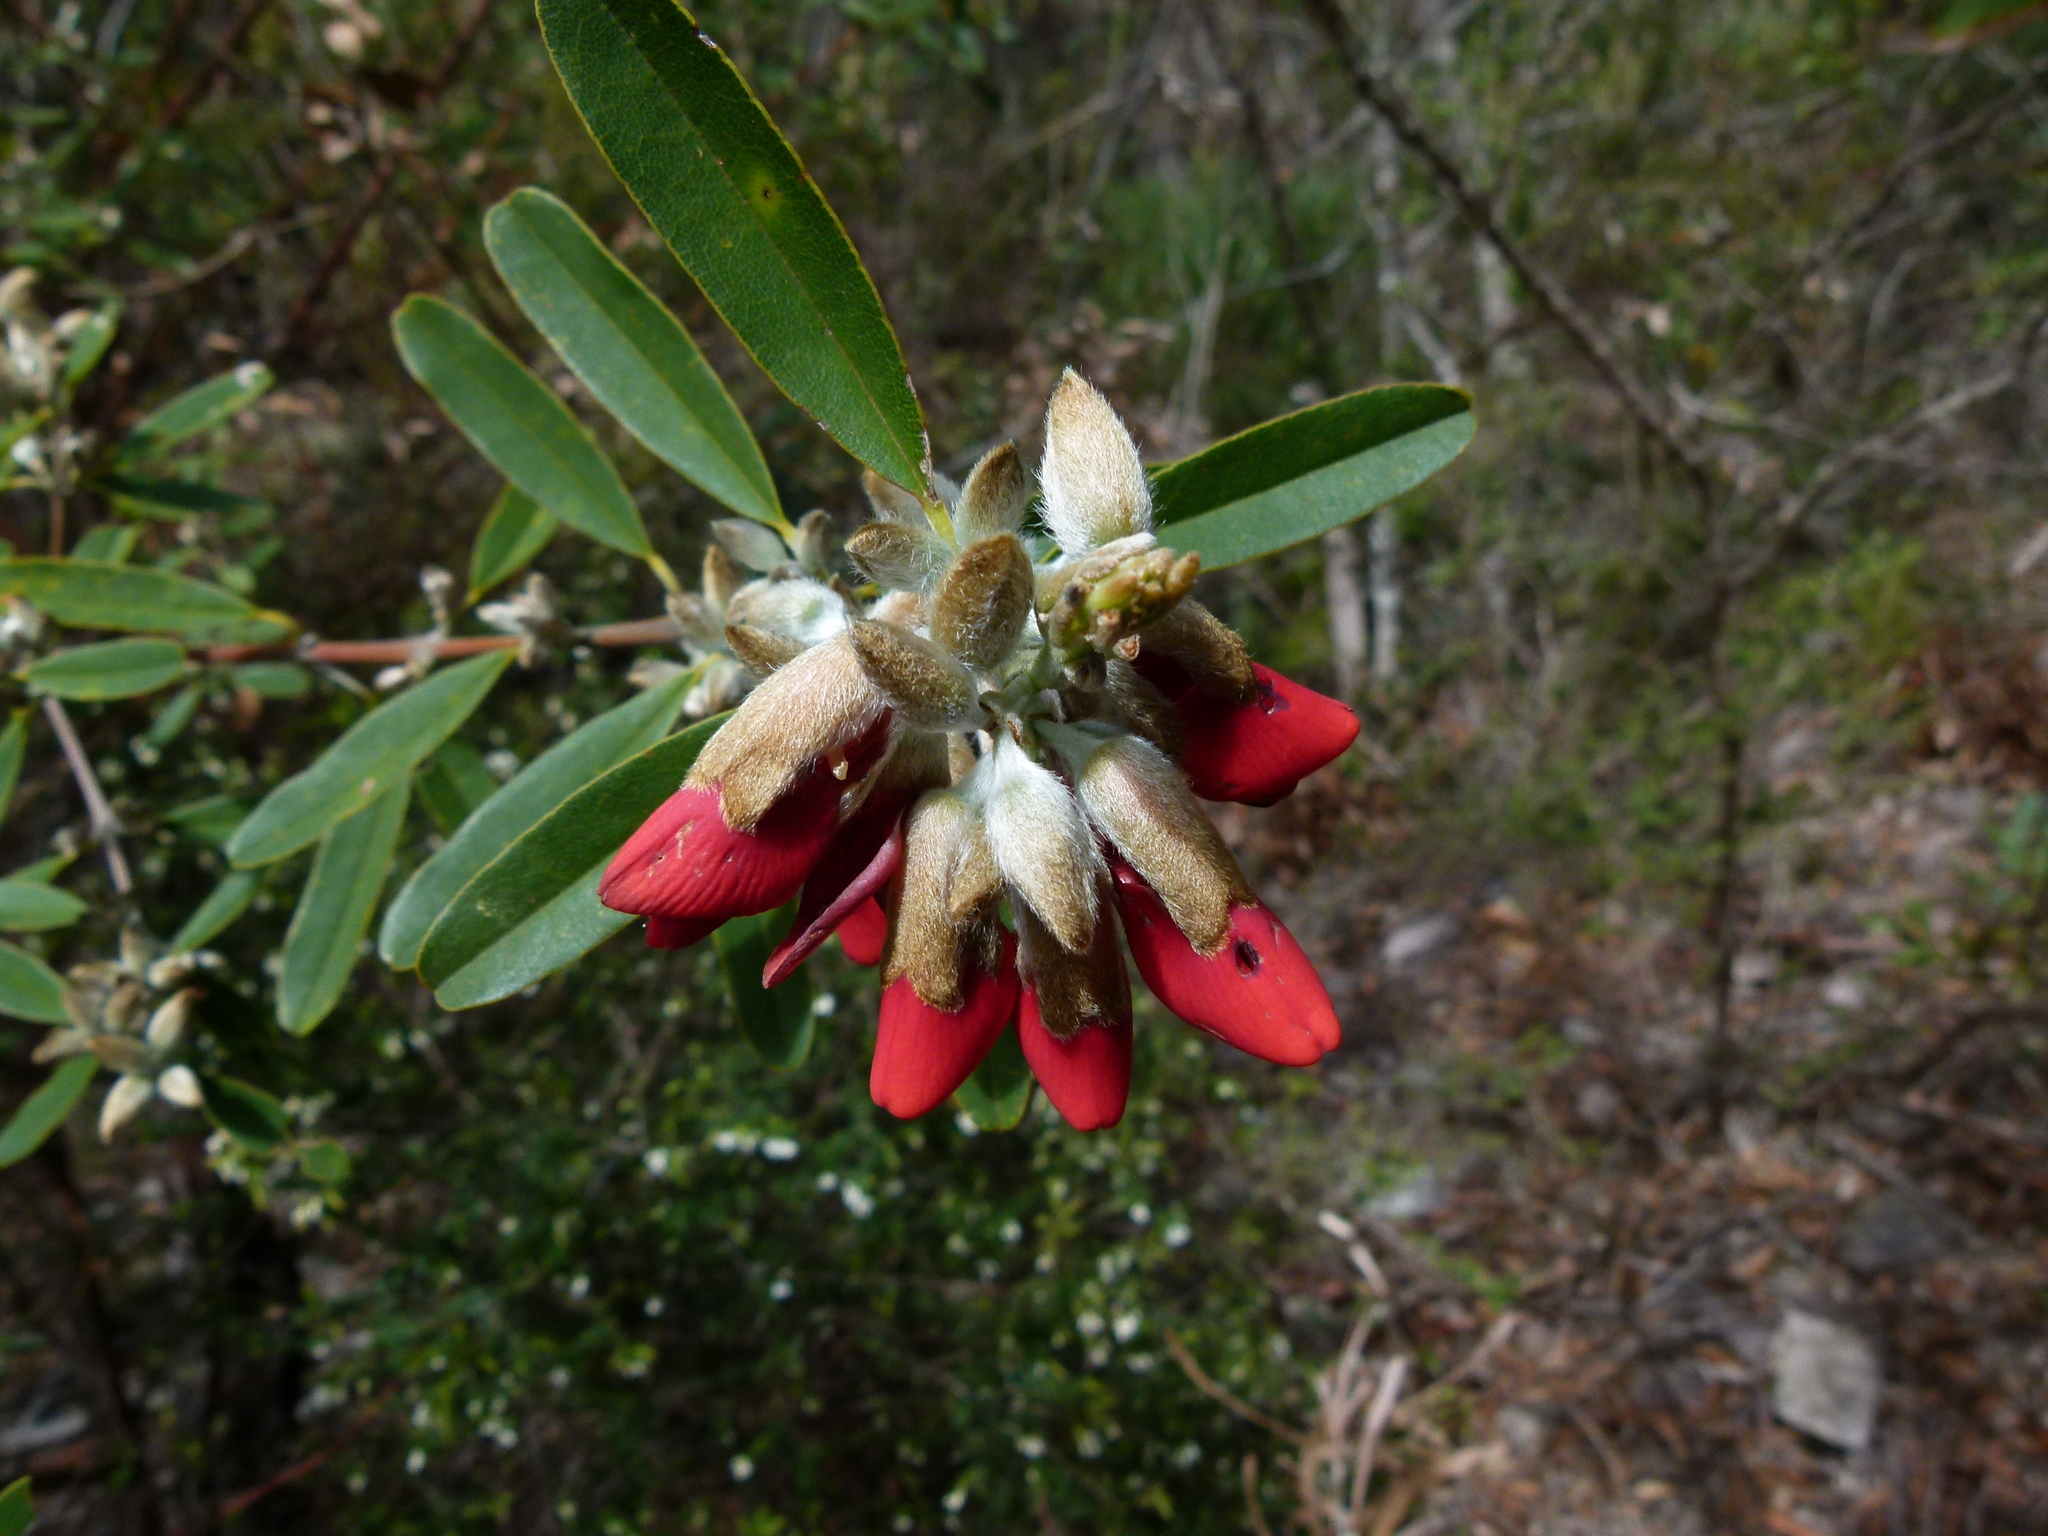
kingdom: Plantae
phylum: Tracheophyta
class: Magnoliopsida
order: Fabales
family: Fabaceae
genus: Gastrolobium
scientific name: Gastrolobium rubrum
